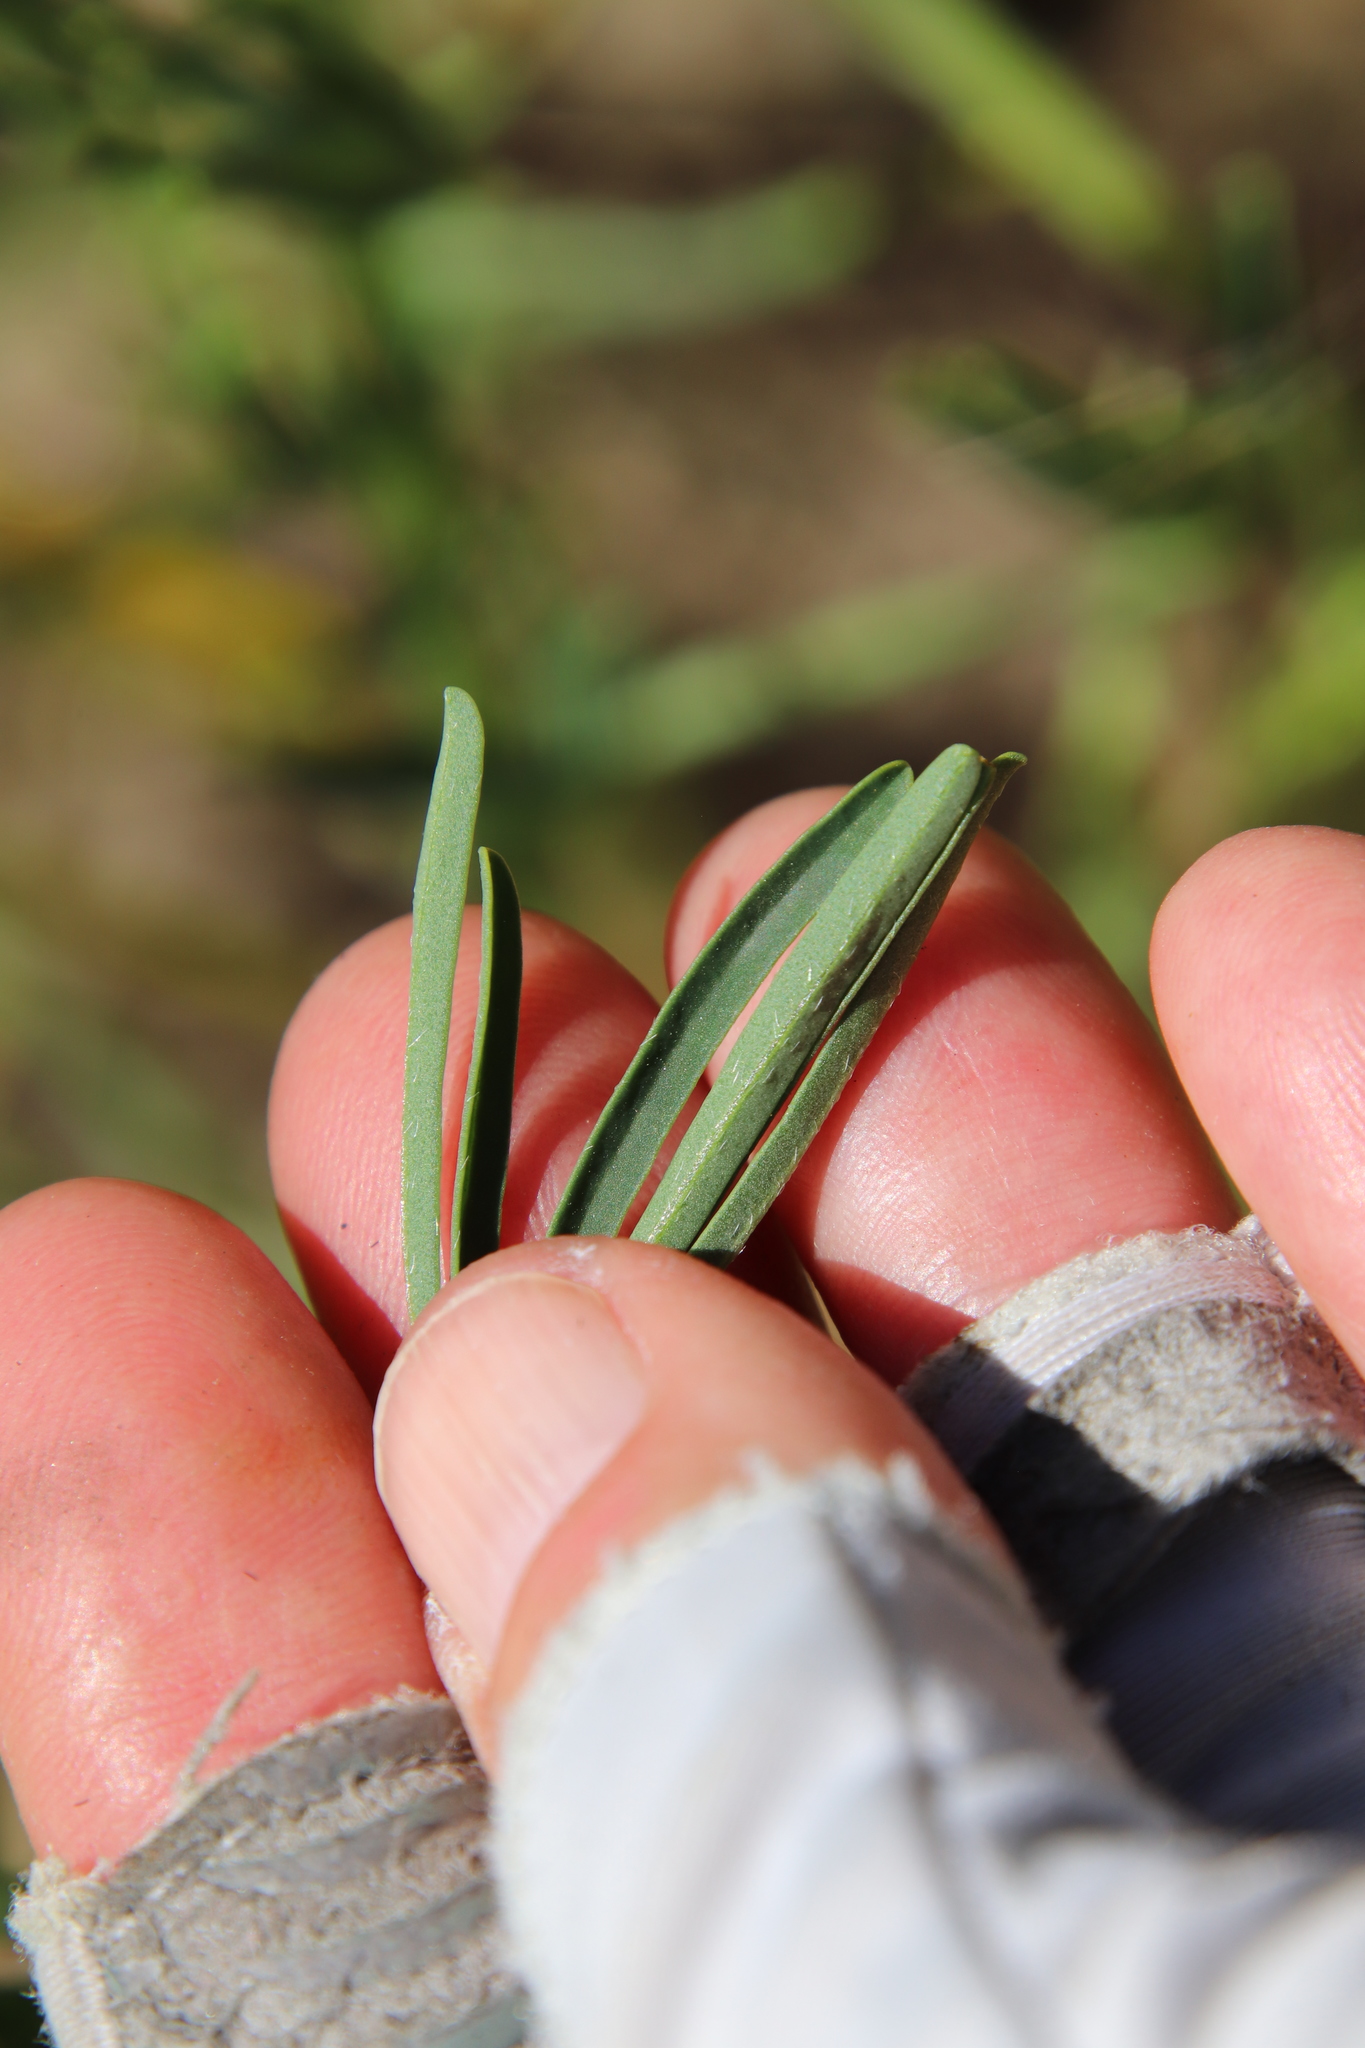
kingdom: Plantae
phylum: Tracheophyta
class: Magnoliopsida
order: Fabales
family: Fabaceae
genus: Lupinus
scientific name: Lupinus truncatus
